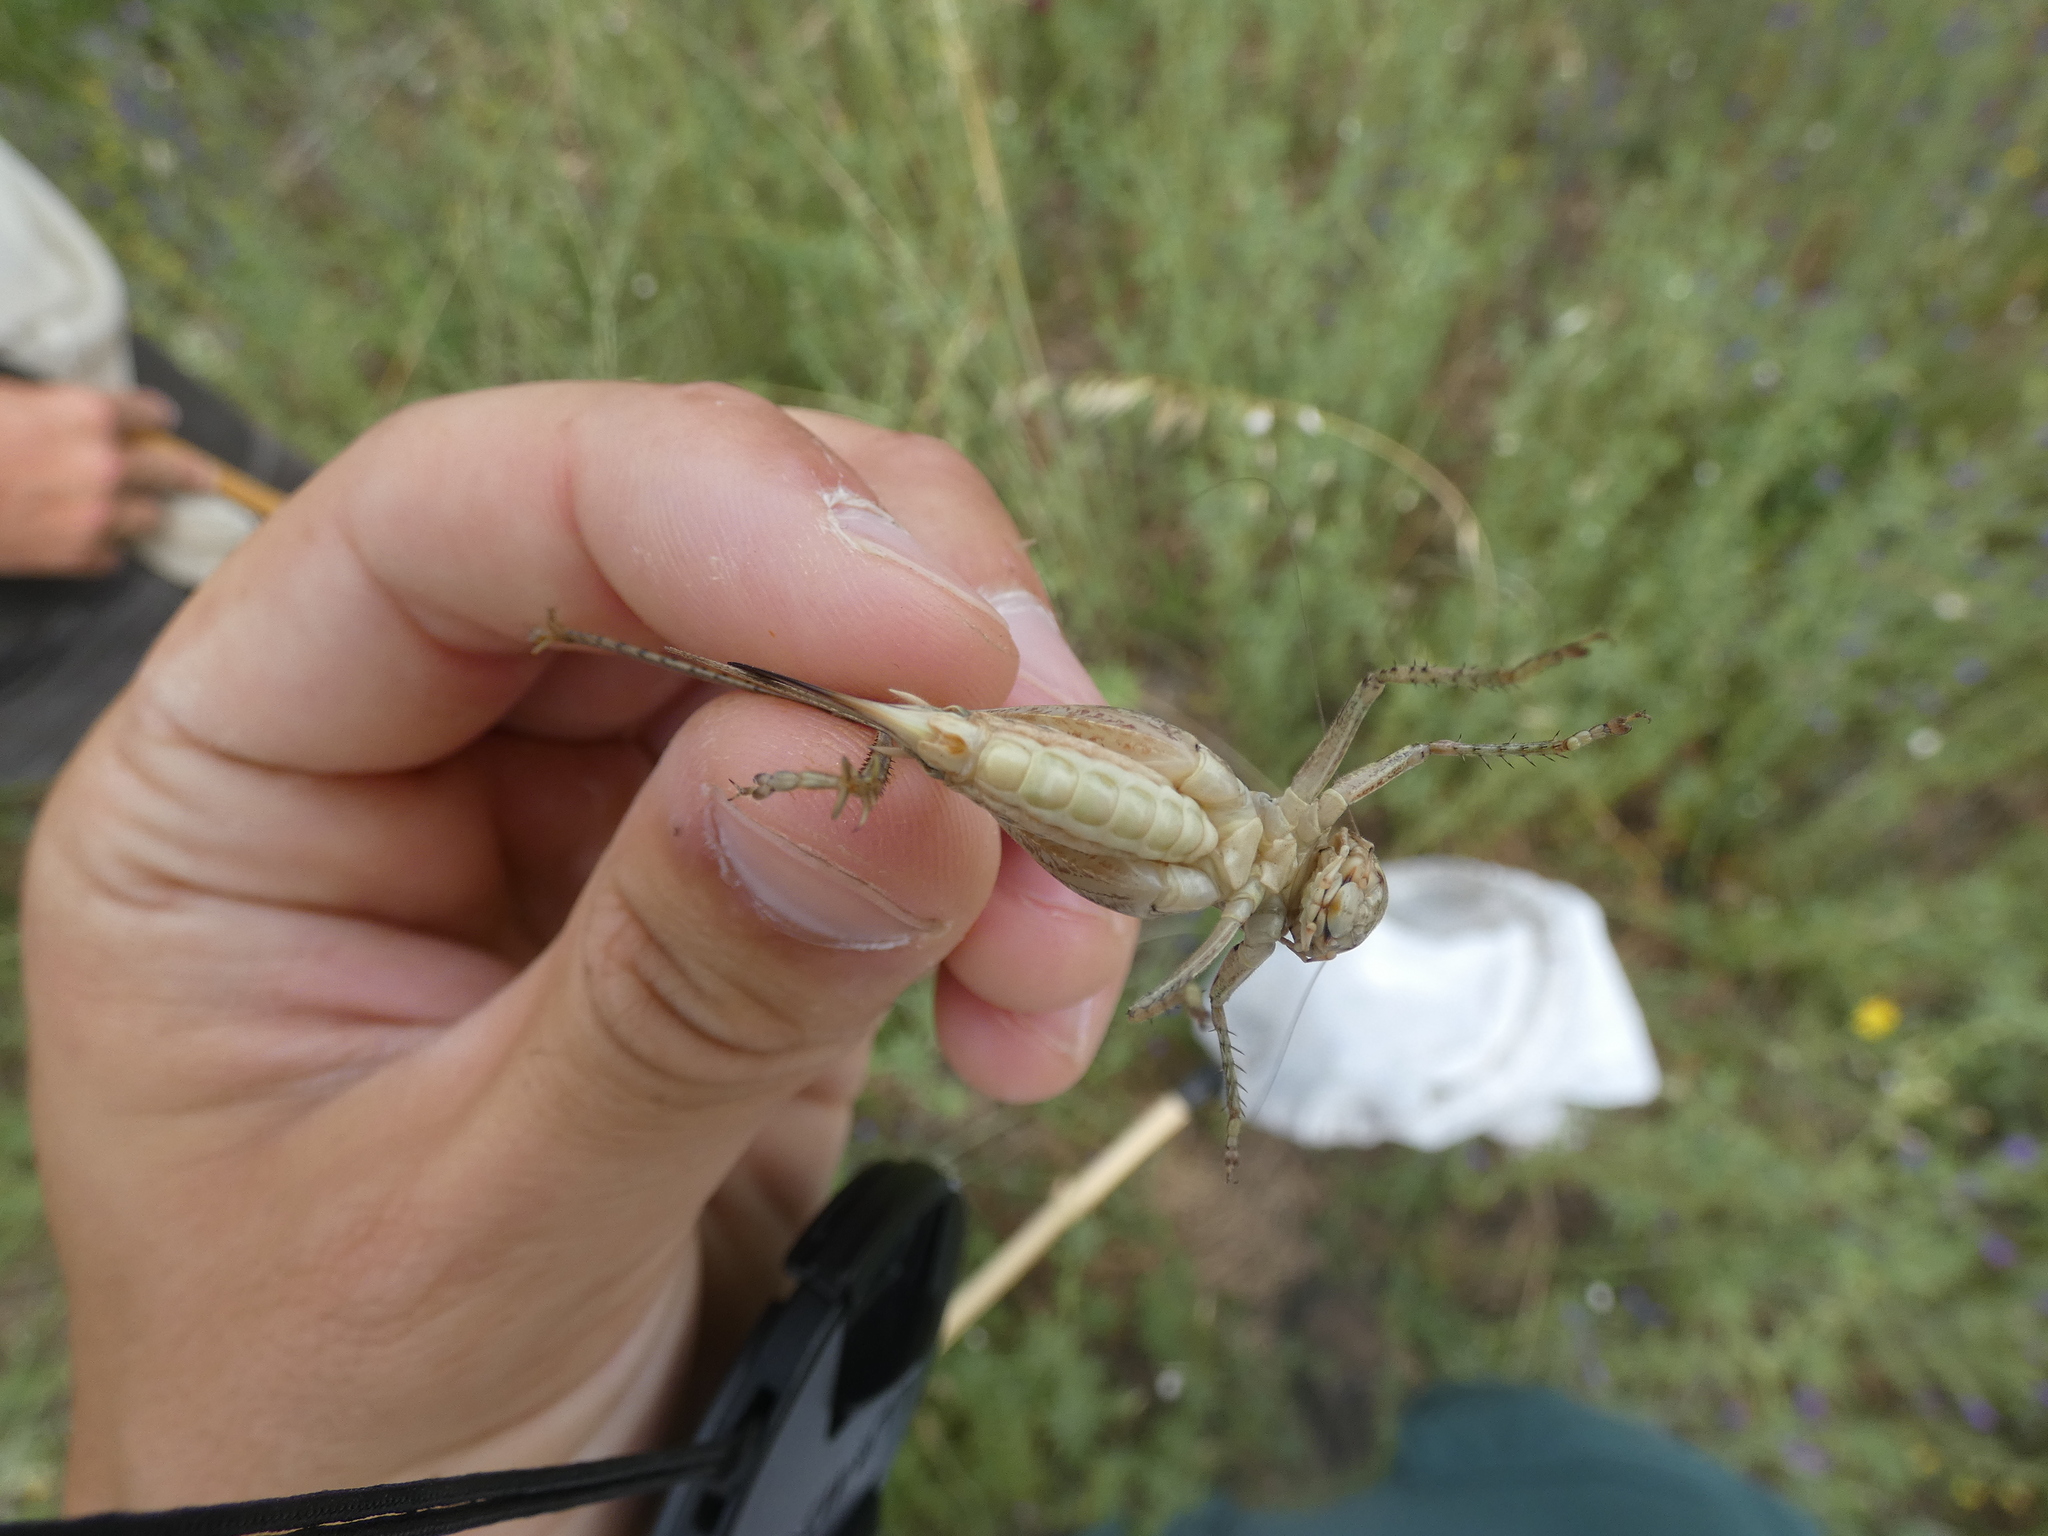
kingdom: Animalia
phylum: Arthropoda
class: Insecta
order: Orthoptera
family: Tettigoniidae
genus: Platycleis
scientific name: Platycleis affinis
